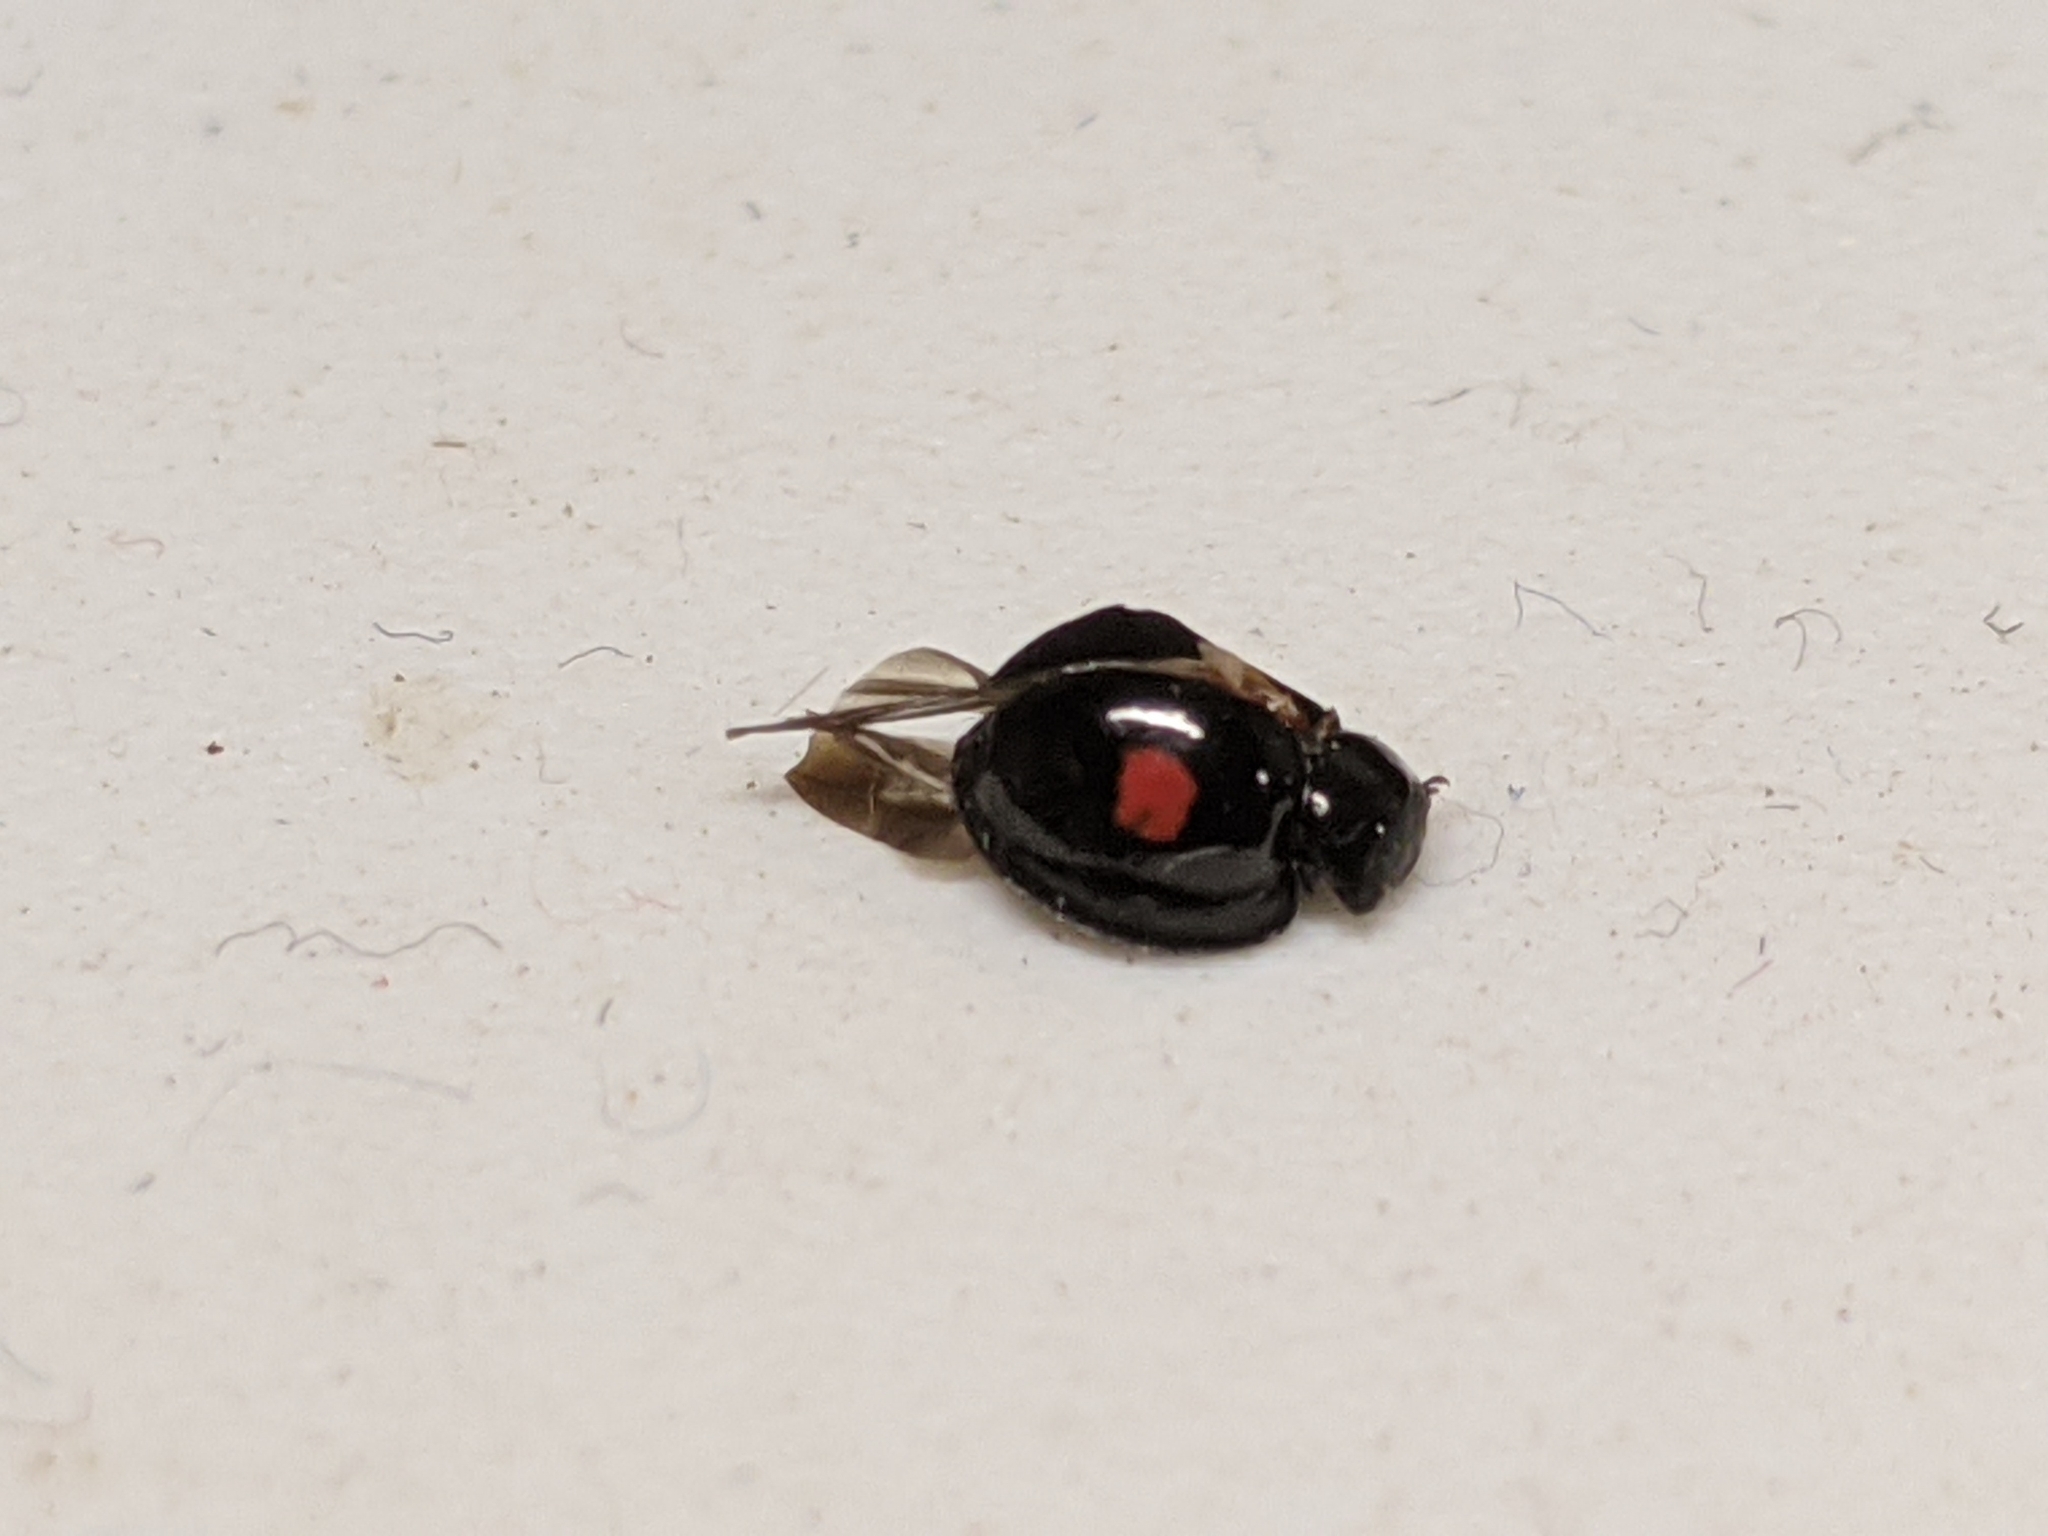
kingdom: Animalia
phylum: Arthropoda
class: Insecta
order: Coleoptera
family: Coccinellidae
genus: Chilocorus
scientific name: Chilocorus stigma
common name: Twicestabbed lady beetle
